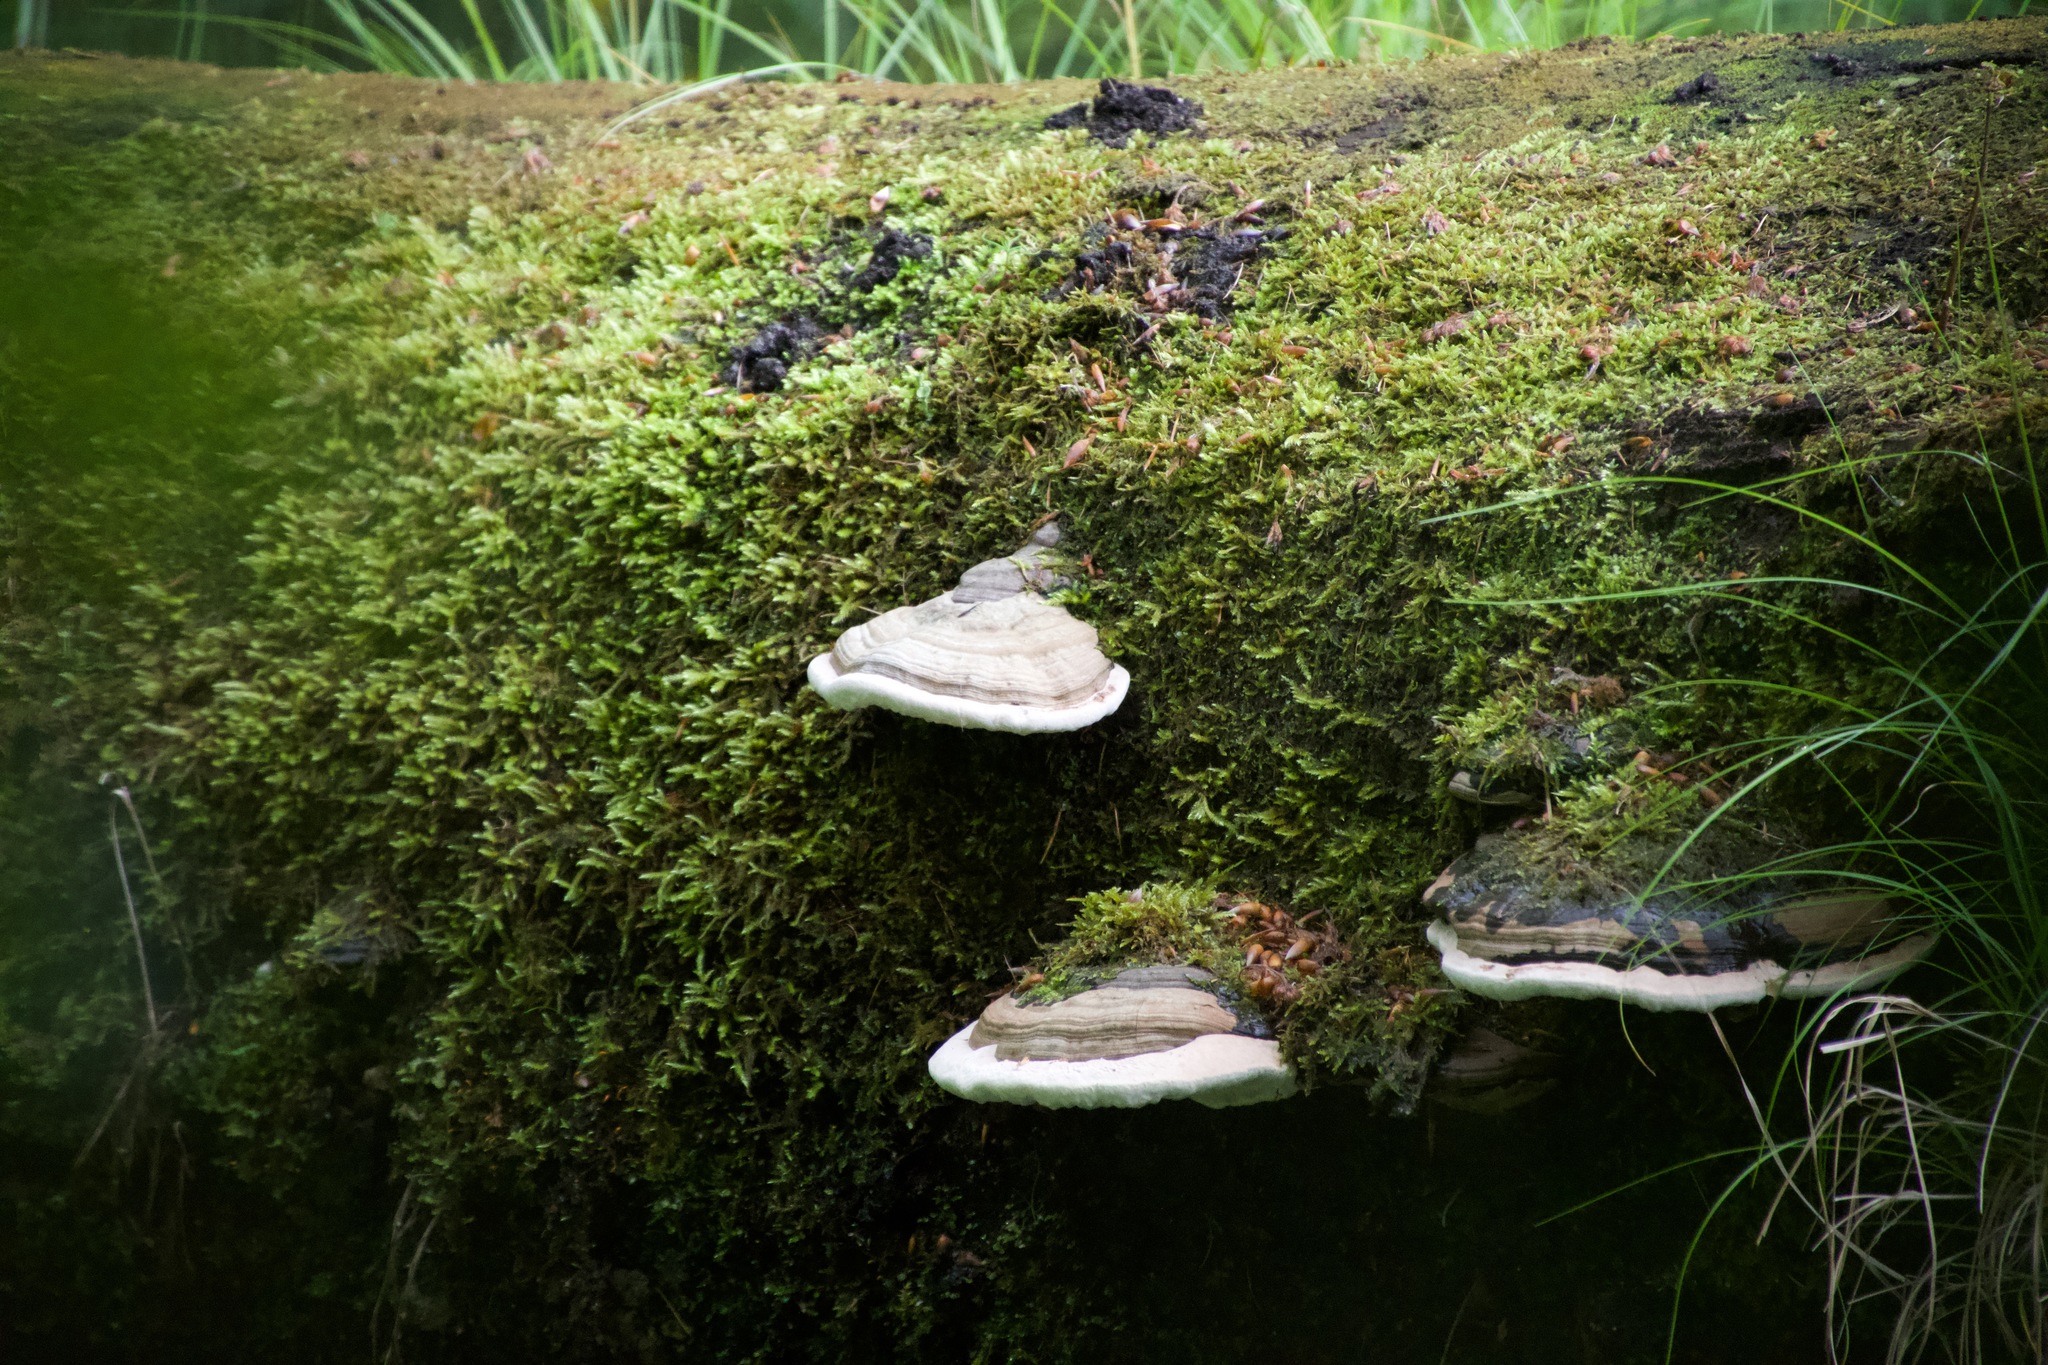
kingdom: Fungi
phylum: Basidiomycota
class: Agaricomycetes
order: Polyporales
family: Polyporaceae
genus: Fomes
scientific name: Fomes fomentarius
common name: Hoof fungus
